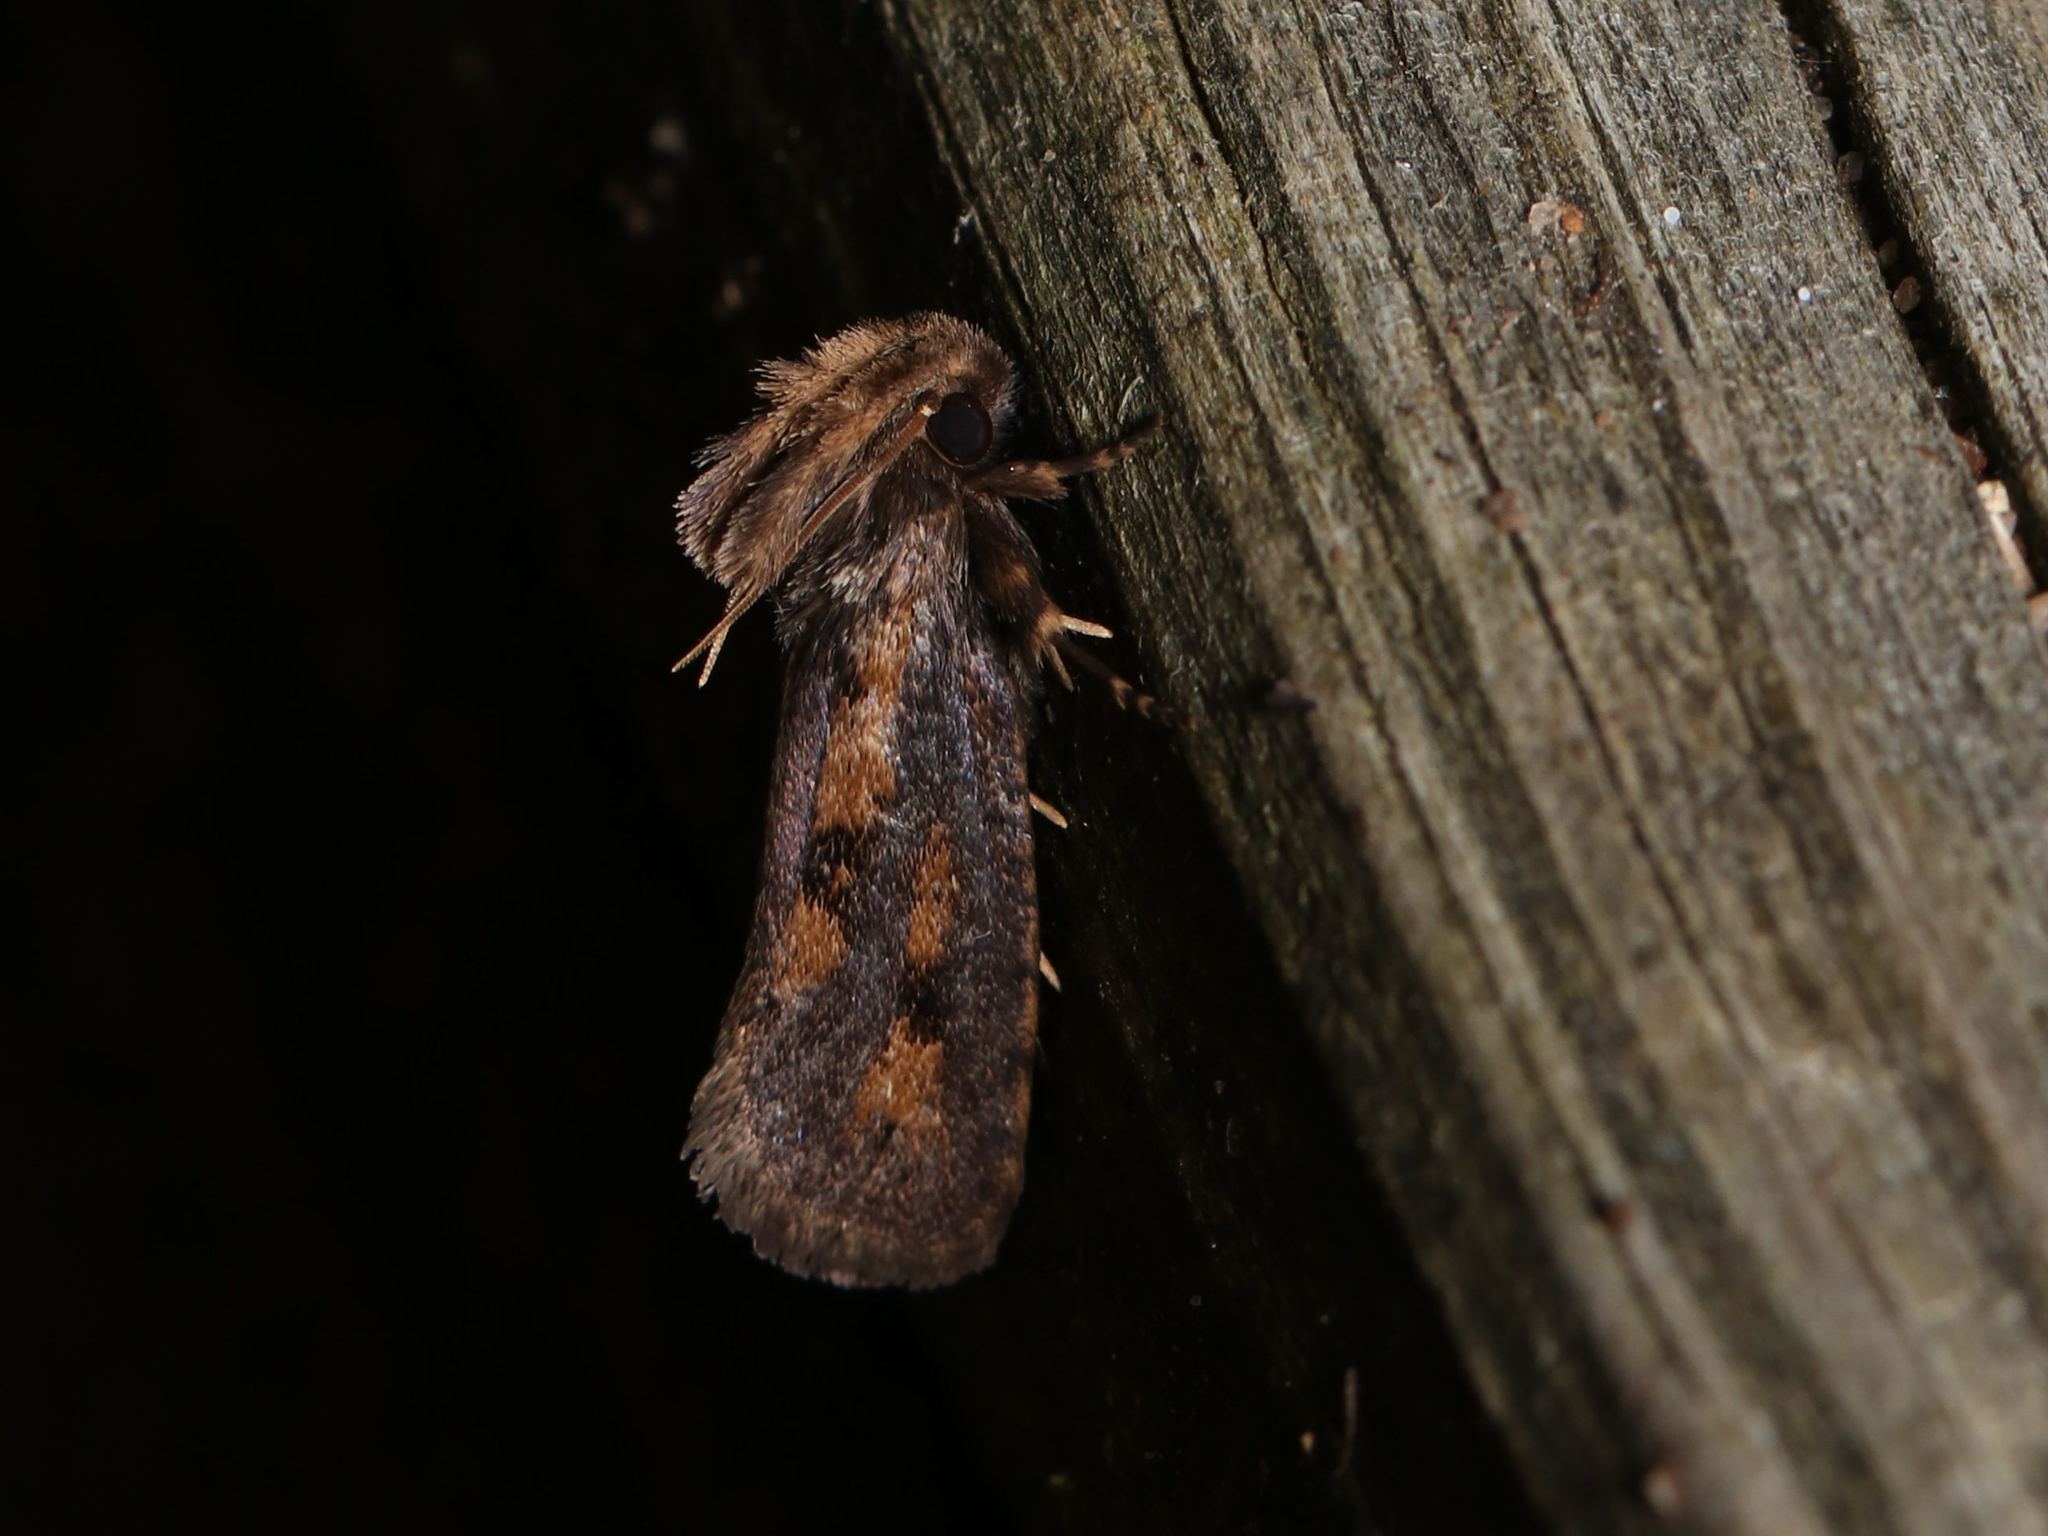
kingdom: Animalia
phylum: Arthropoda
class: Insecta
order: Lepidoptera
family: Tineidae
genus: Acrolophus
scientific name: Acrolophus popeanella
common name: Clemens' grass tubeworm moth
